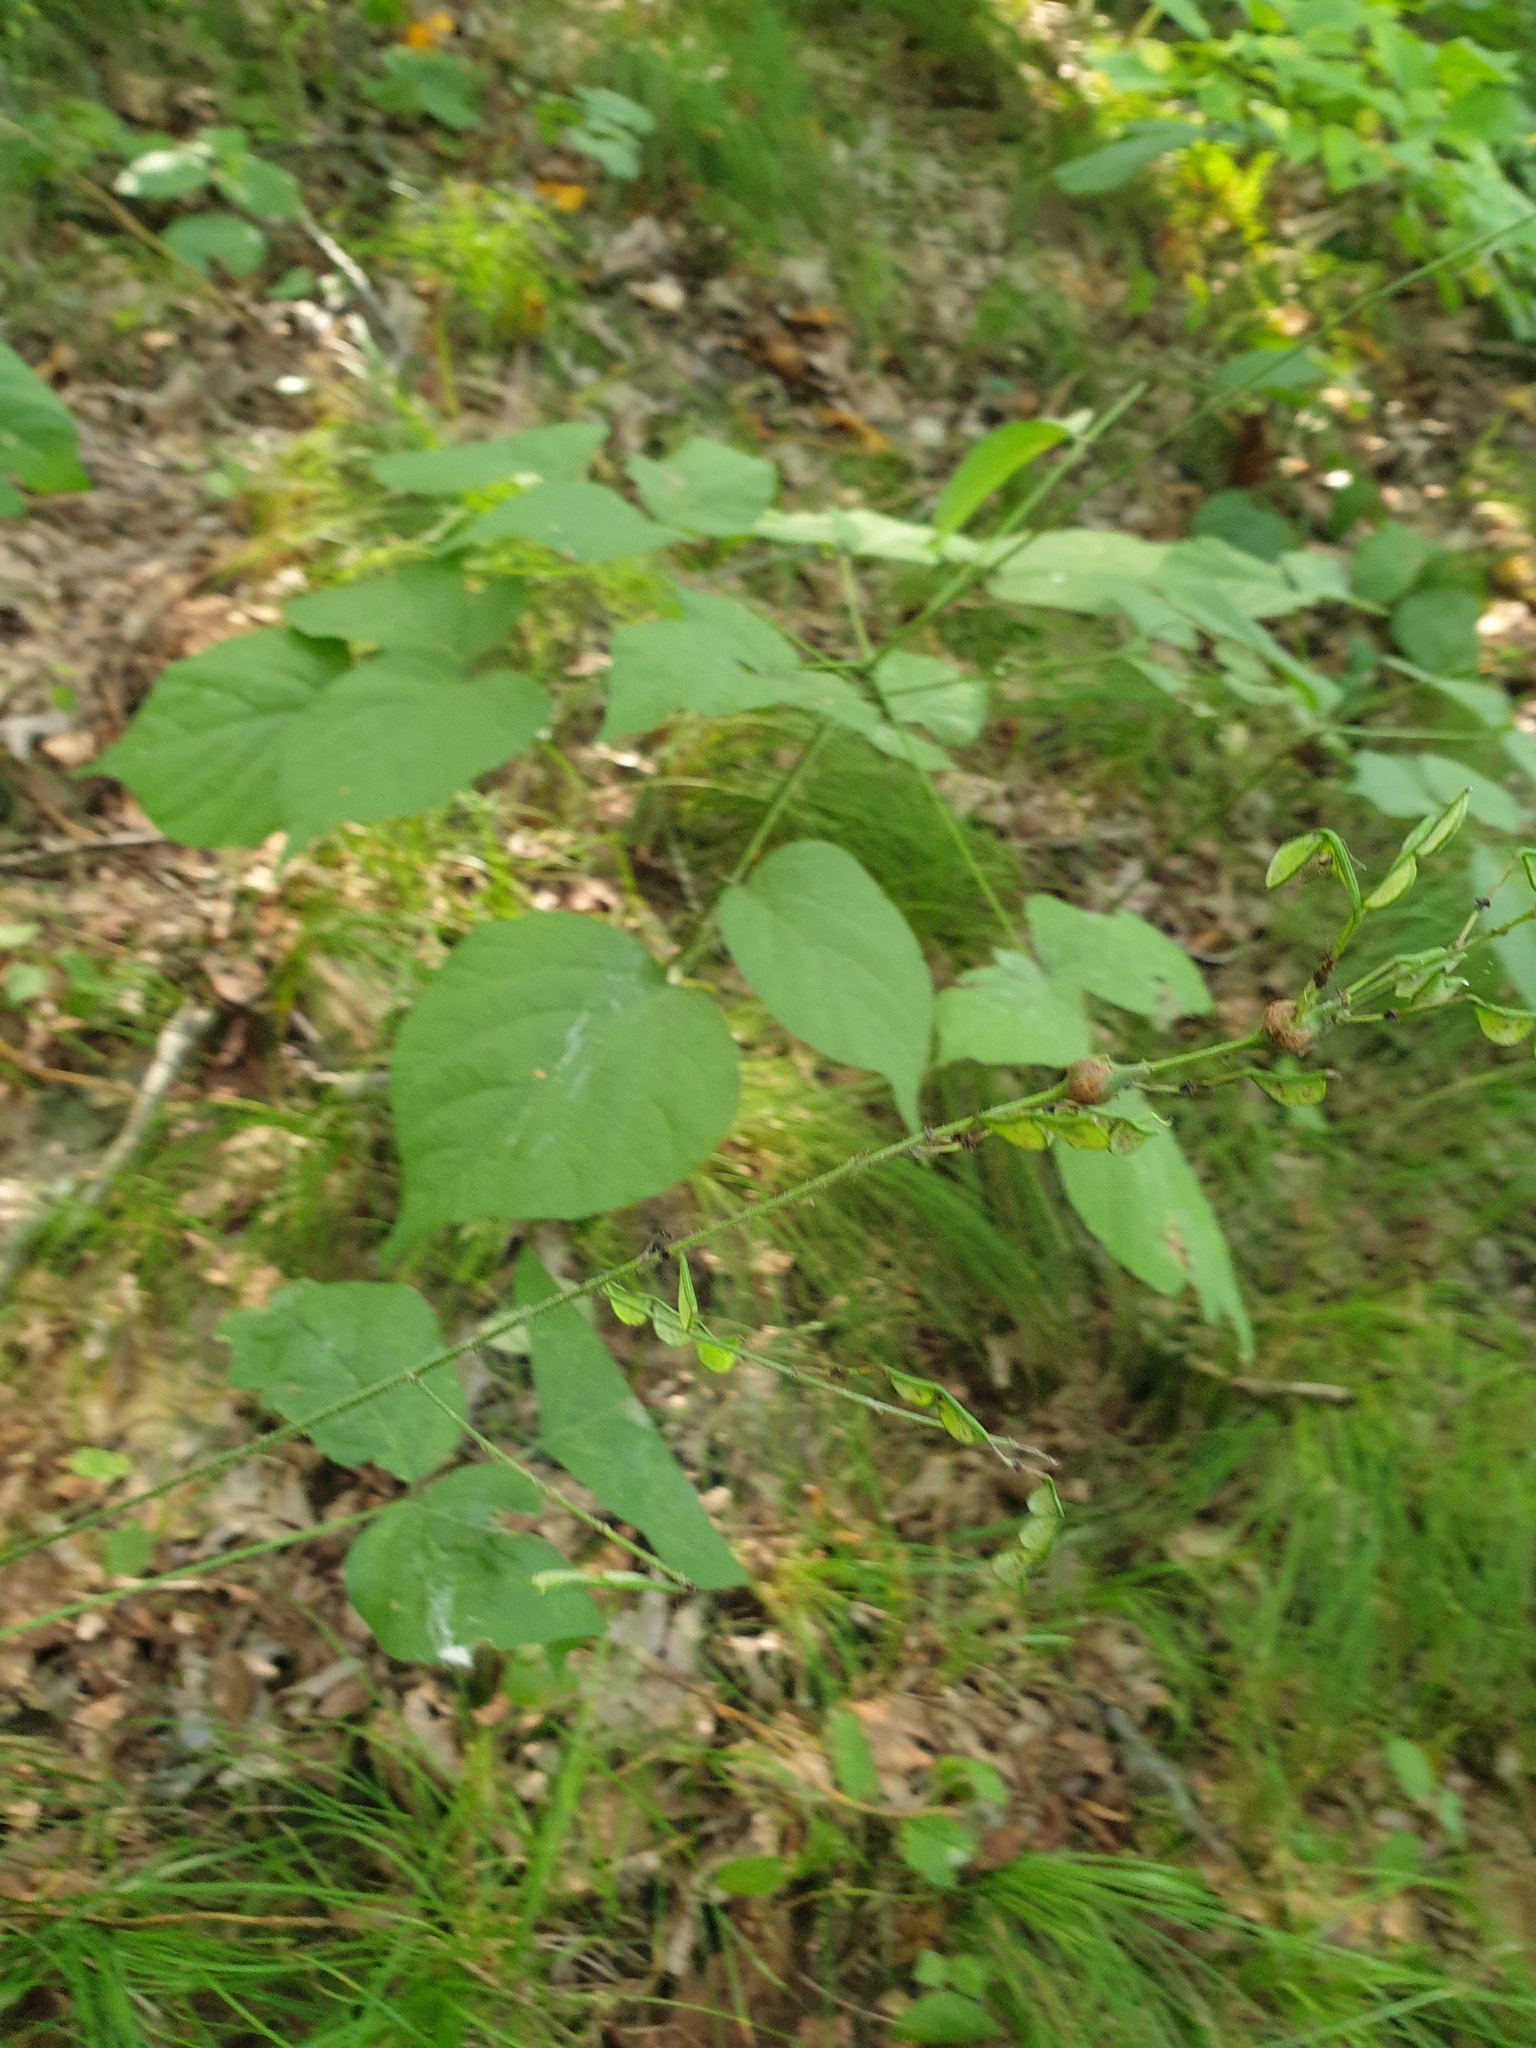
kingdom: Plantae
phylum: Tracheophyta
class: Magnoliopsida
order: Fabales
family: Fabaceae
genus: Hylodesmum
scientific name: Hylodesmum glutinosum
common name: Clustered-leaved tick-trefoil
